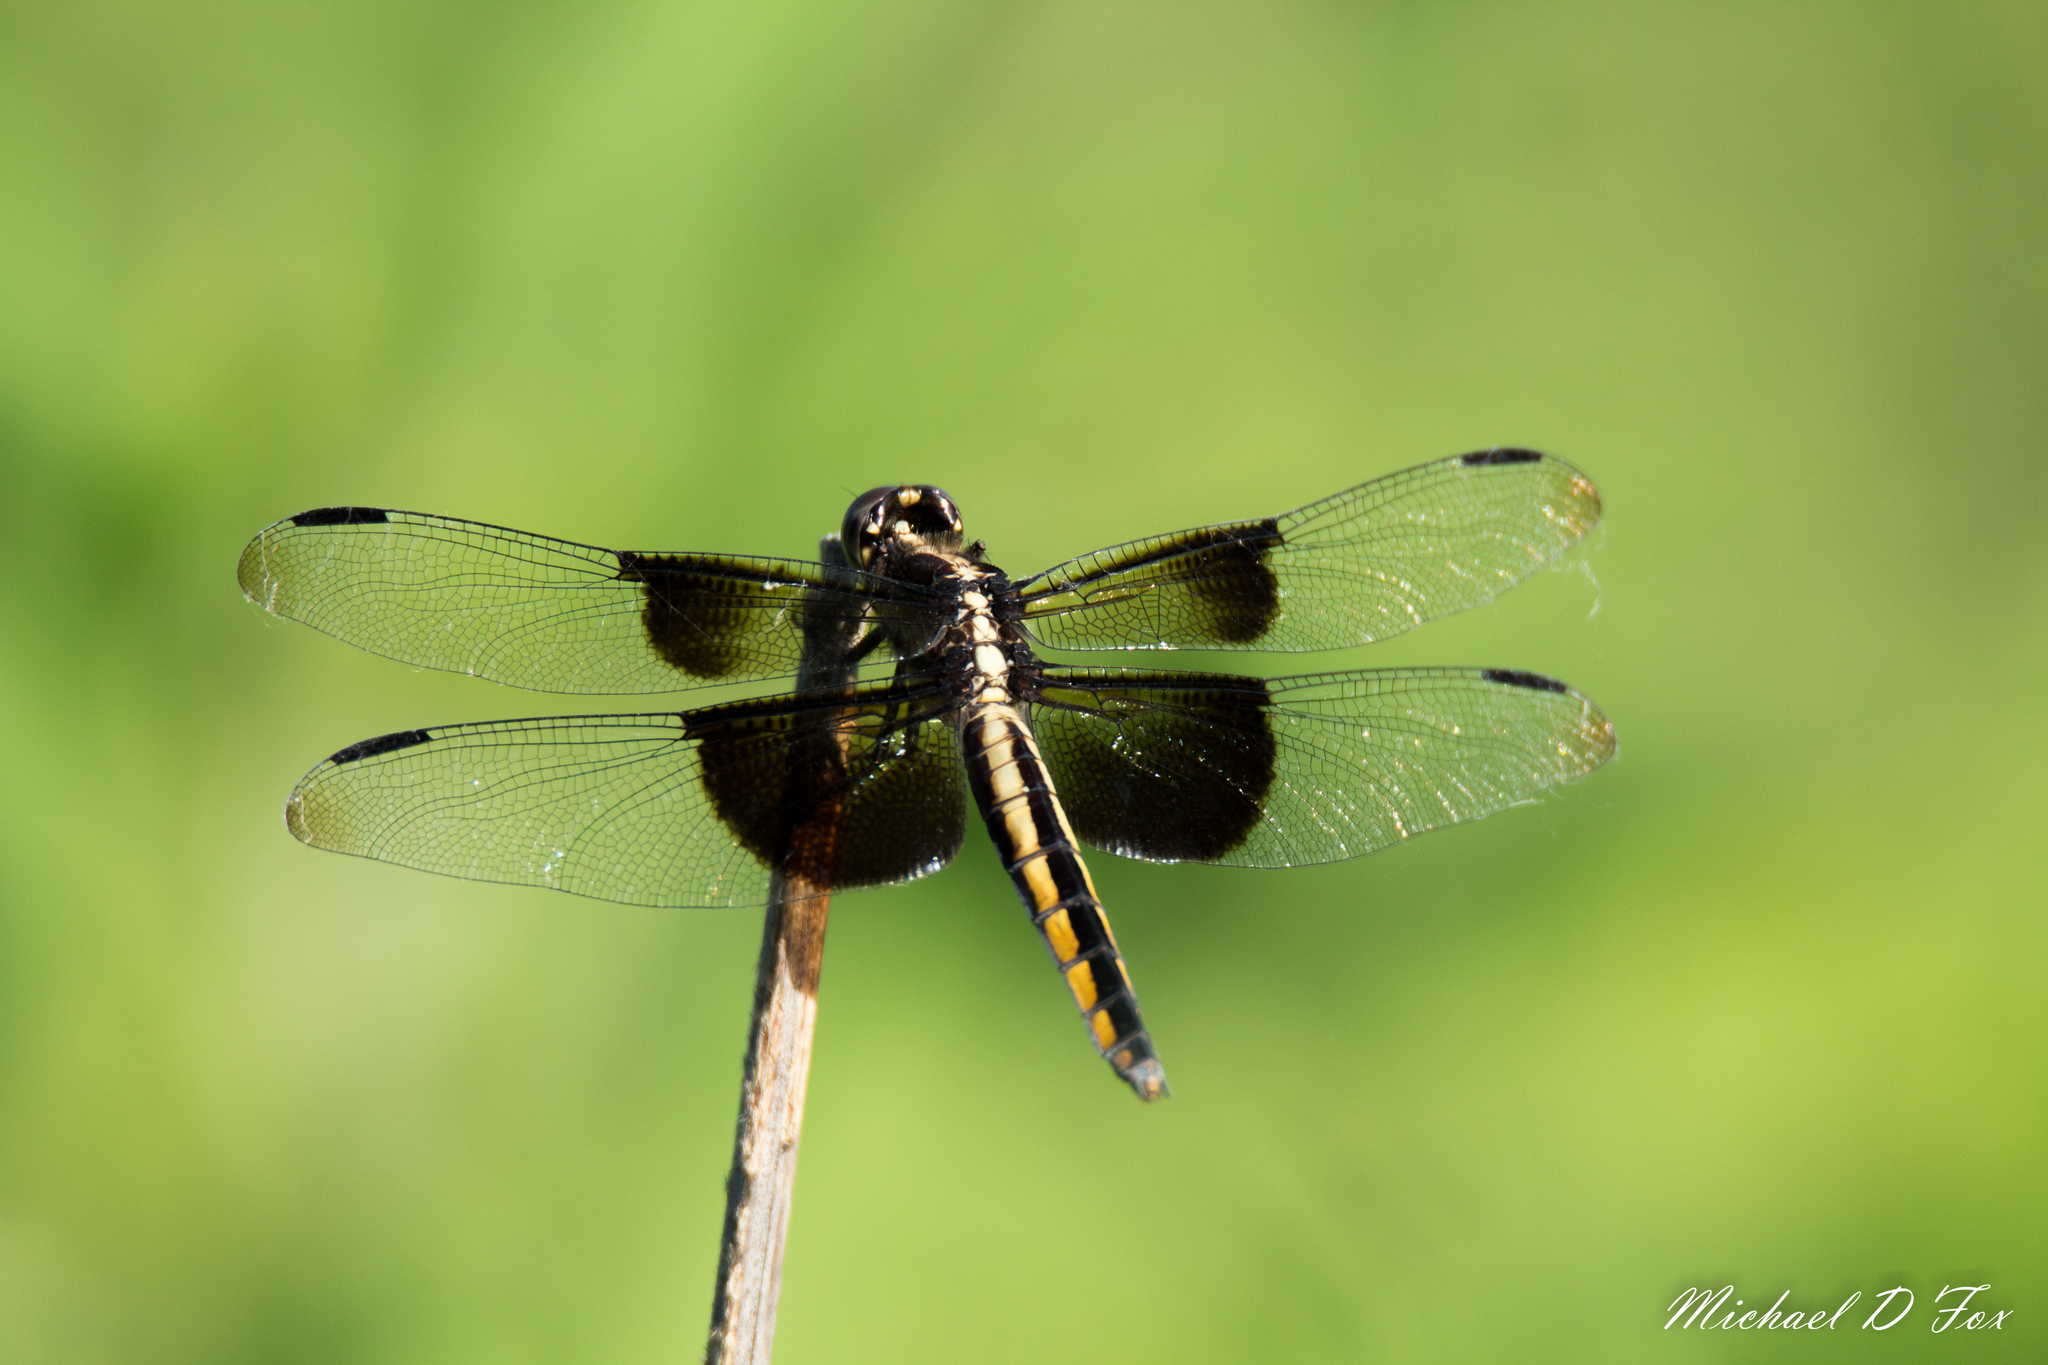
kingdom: Animalia
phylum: Arthropoda
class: Insecta
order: Odonata
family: Libellulidae
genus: Libellula
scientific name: Libellula luctuosa
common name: Widow skimmer
